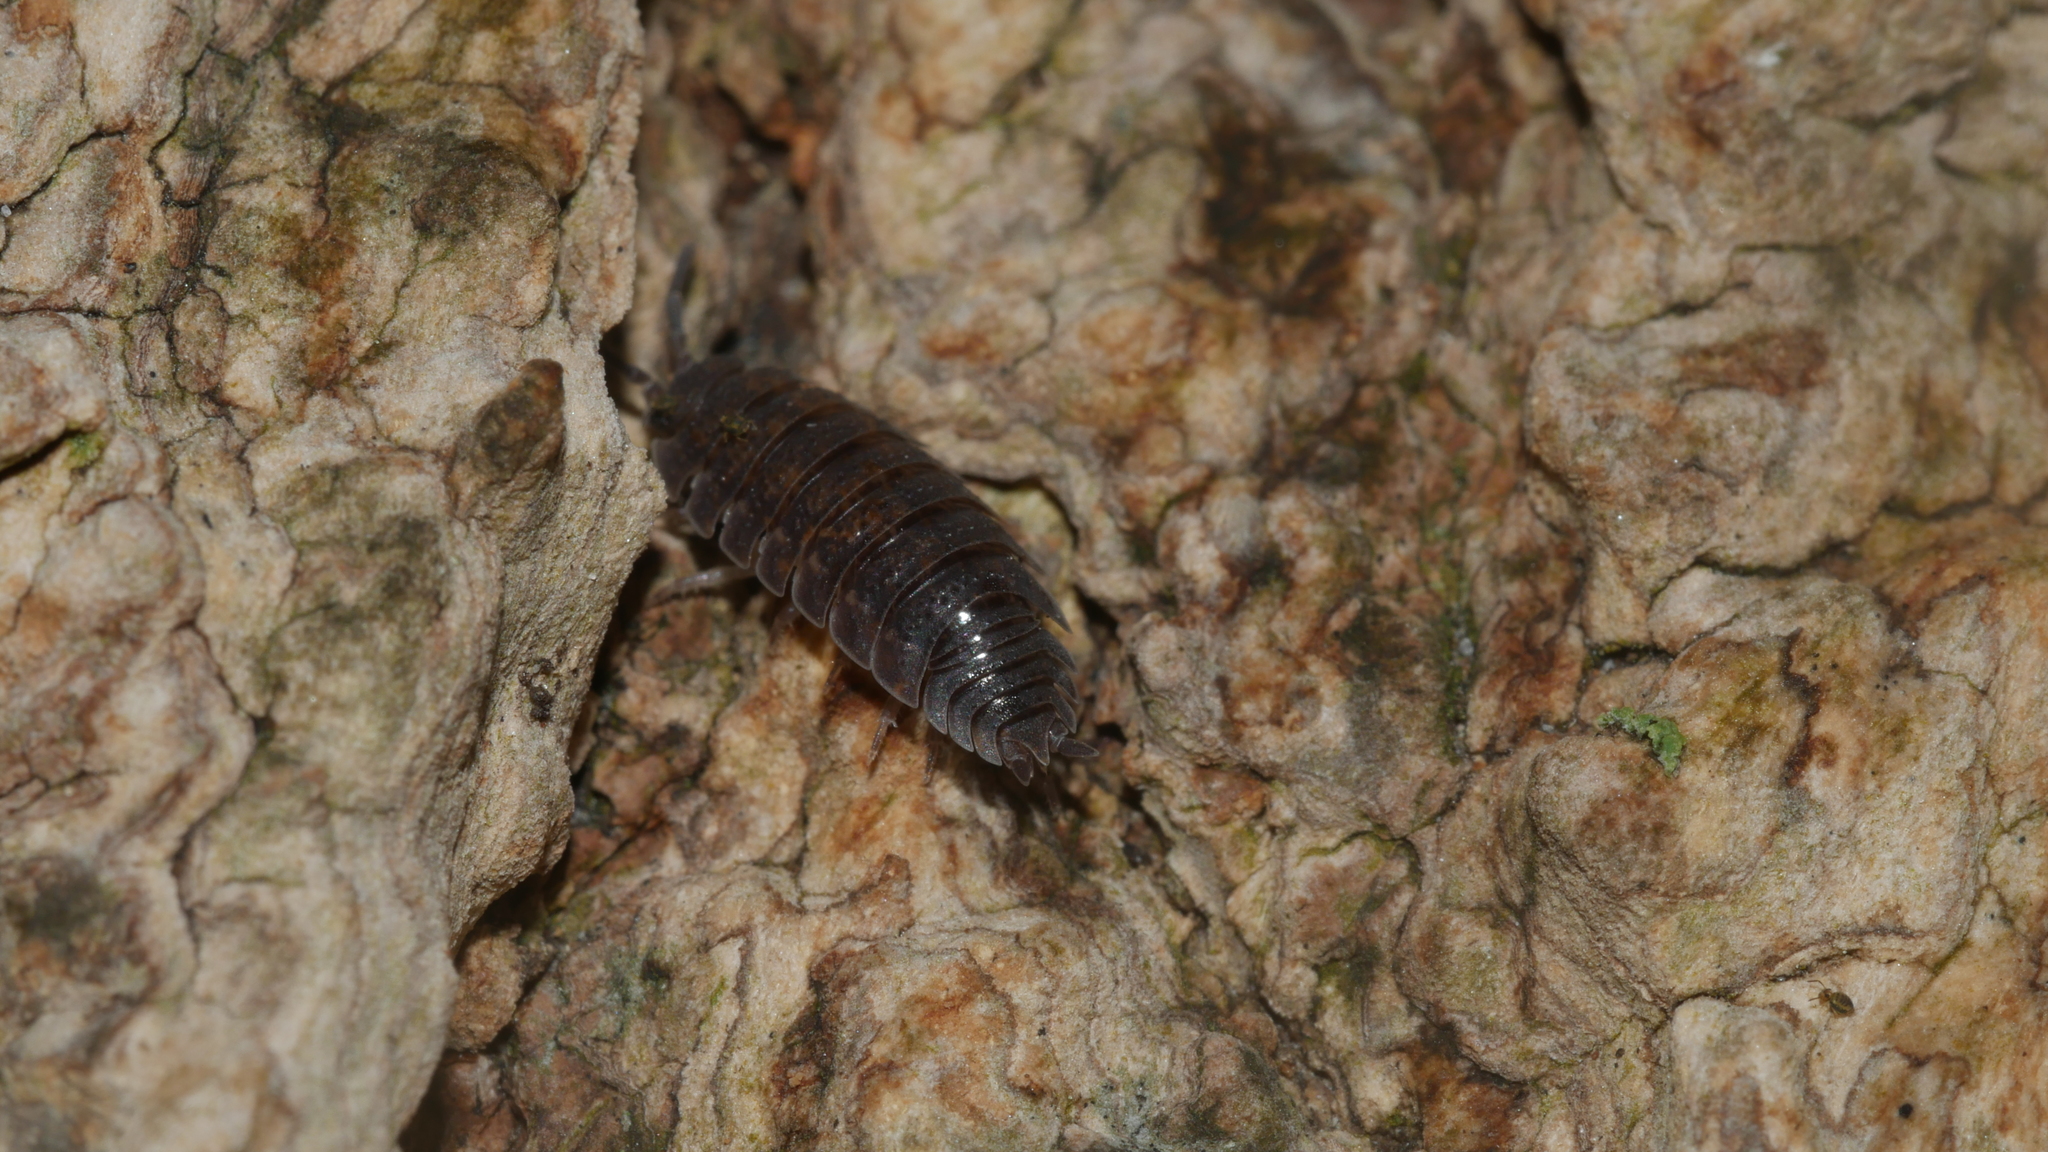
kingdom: Animalia
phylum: Arthropoda
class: Malacostraca
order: Isopoda
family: Porcellionidae
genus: Porcellio
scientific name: Porcellio scaber
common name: Common rough woodlouse
